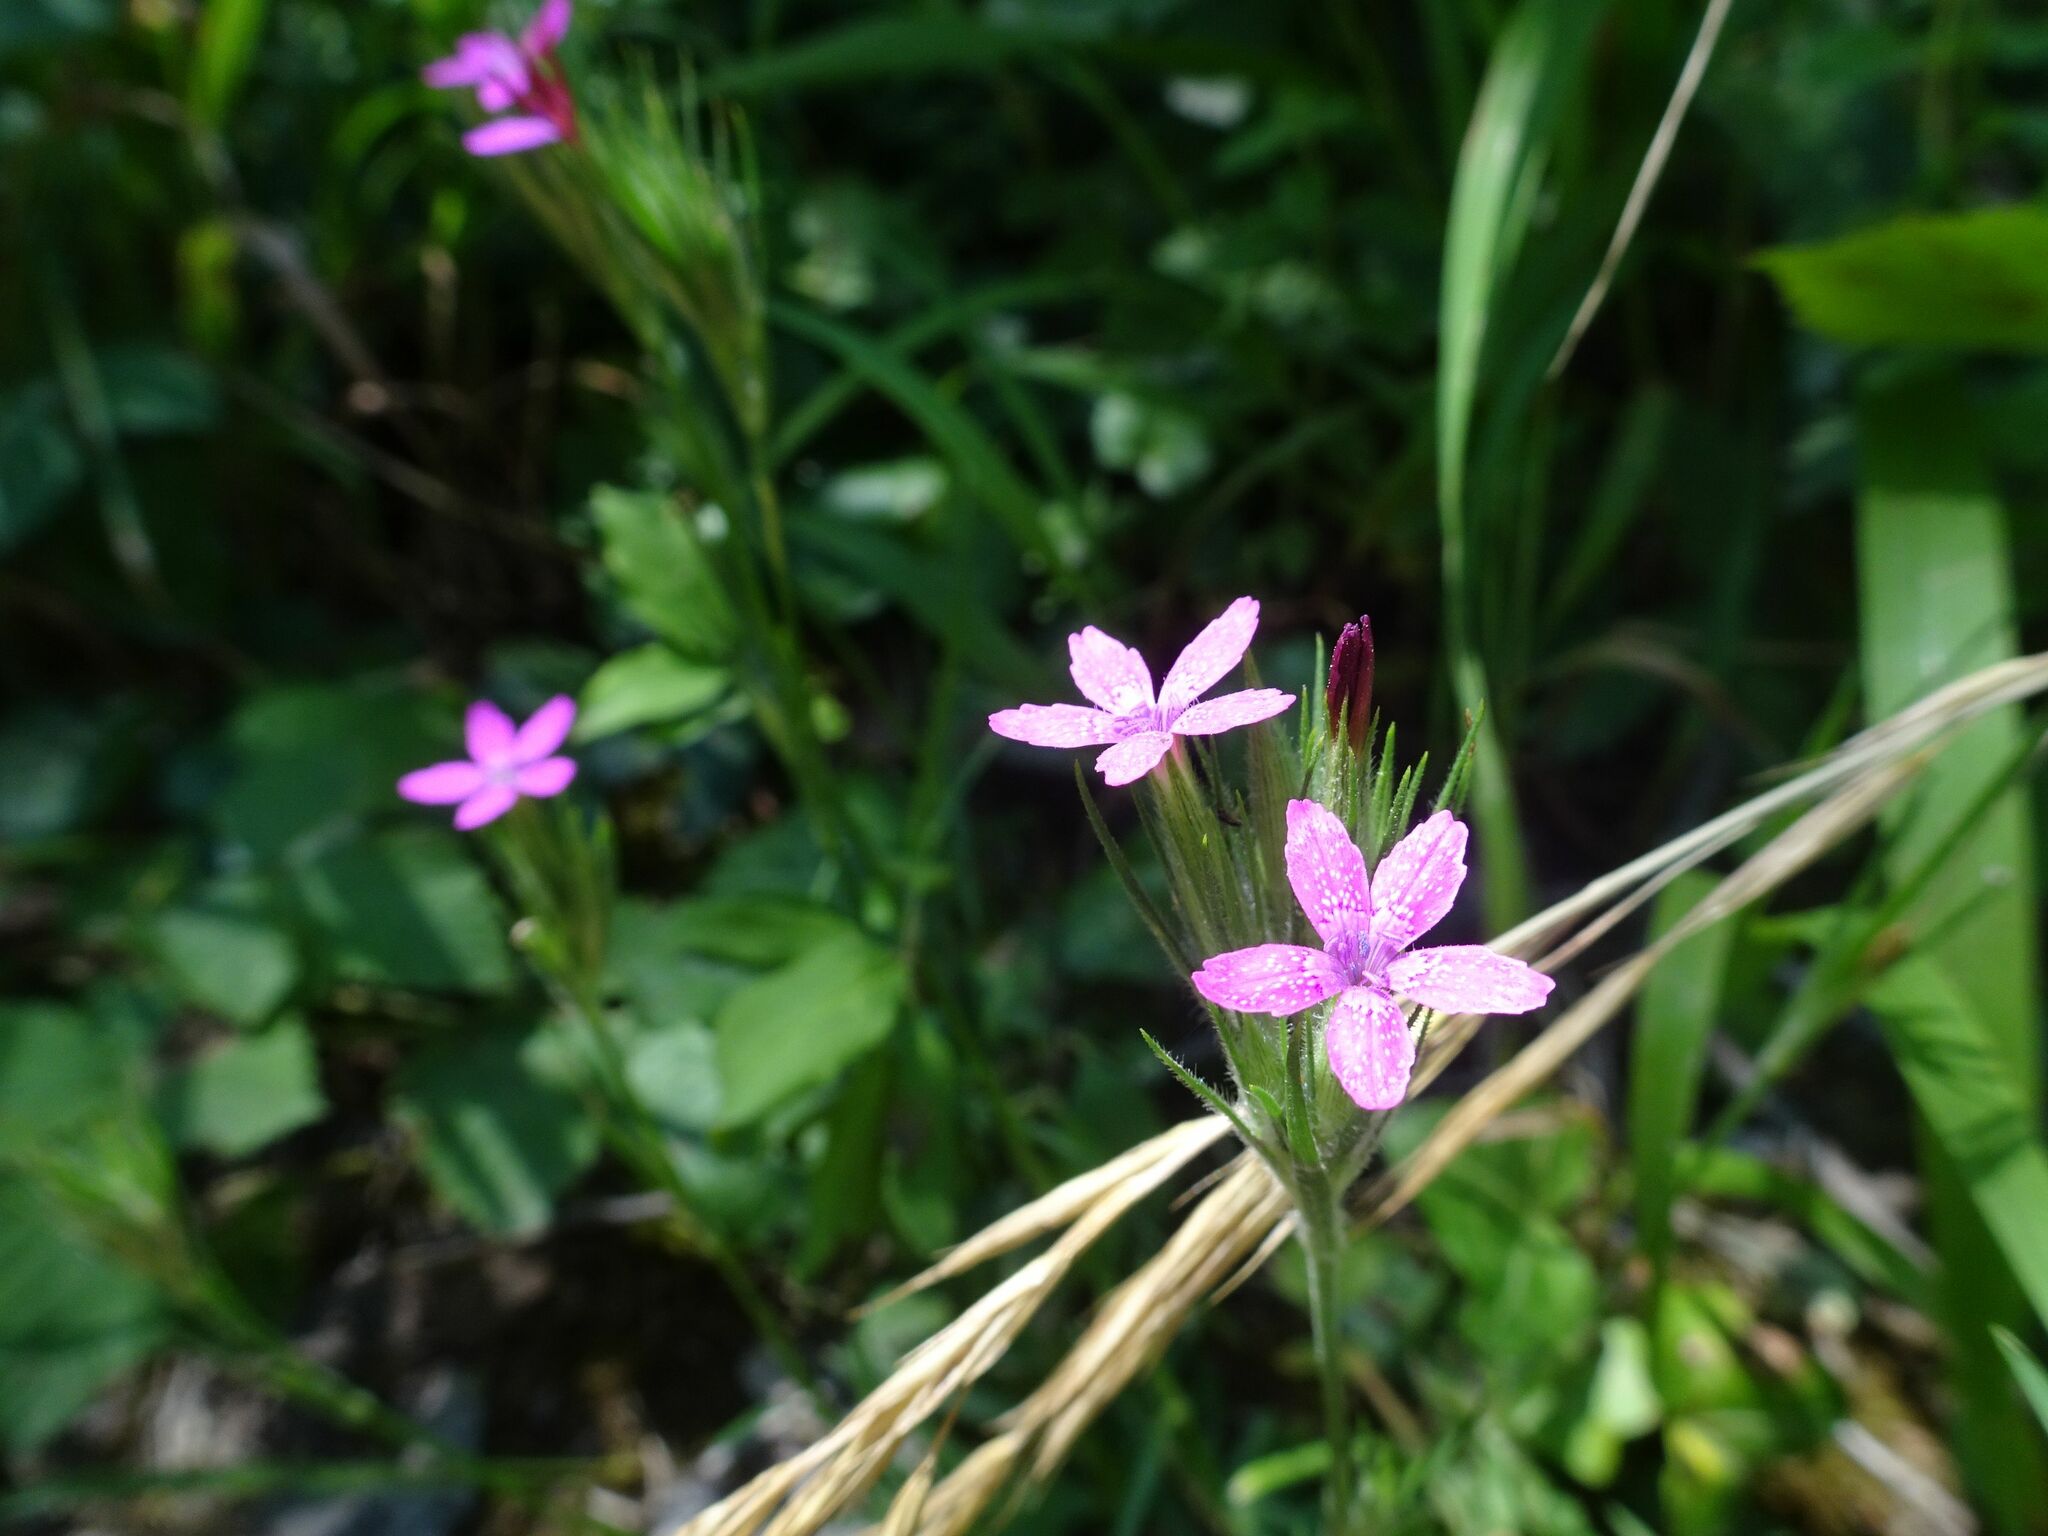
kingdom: Plantae
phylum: Tracheophyta
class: Magnoliopsida
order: Caryophyllales
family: Caryophyllaceae
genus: Dianthus
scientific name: Dianthus armeria
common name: Deptford pink
